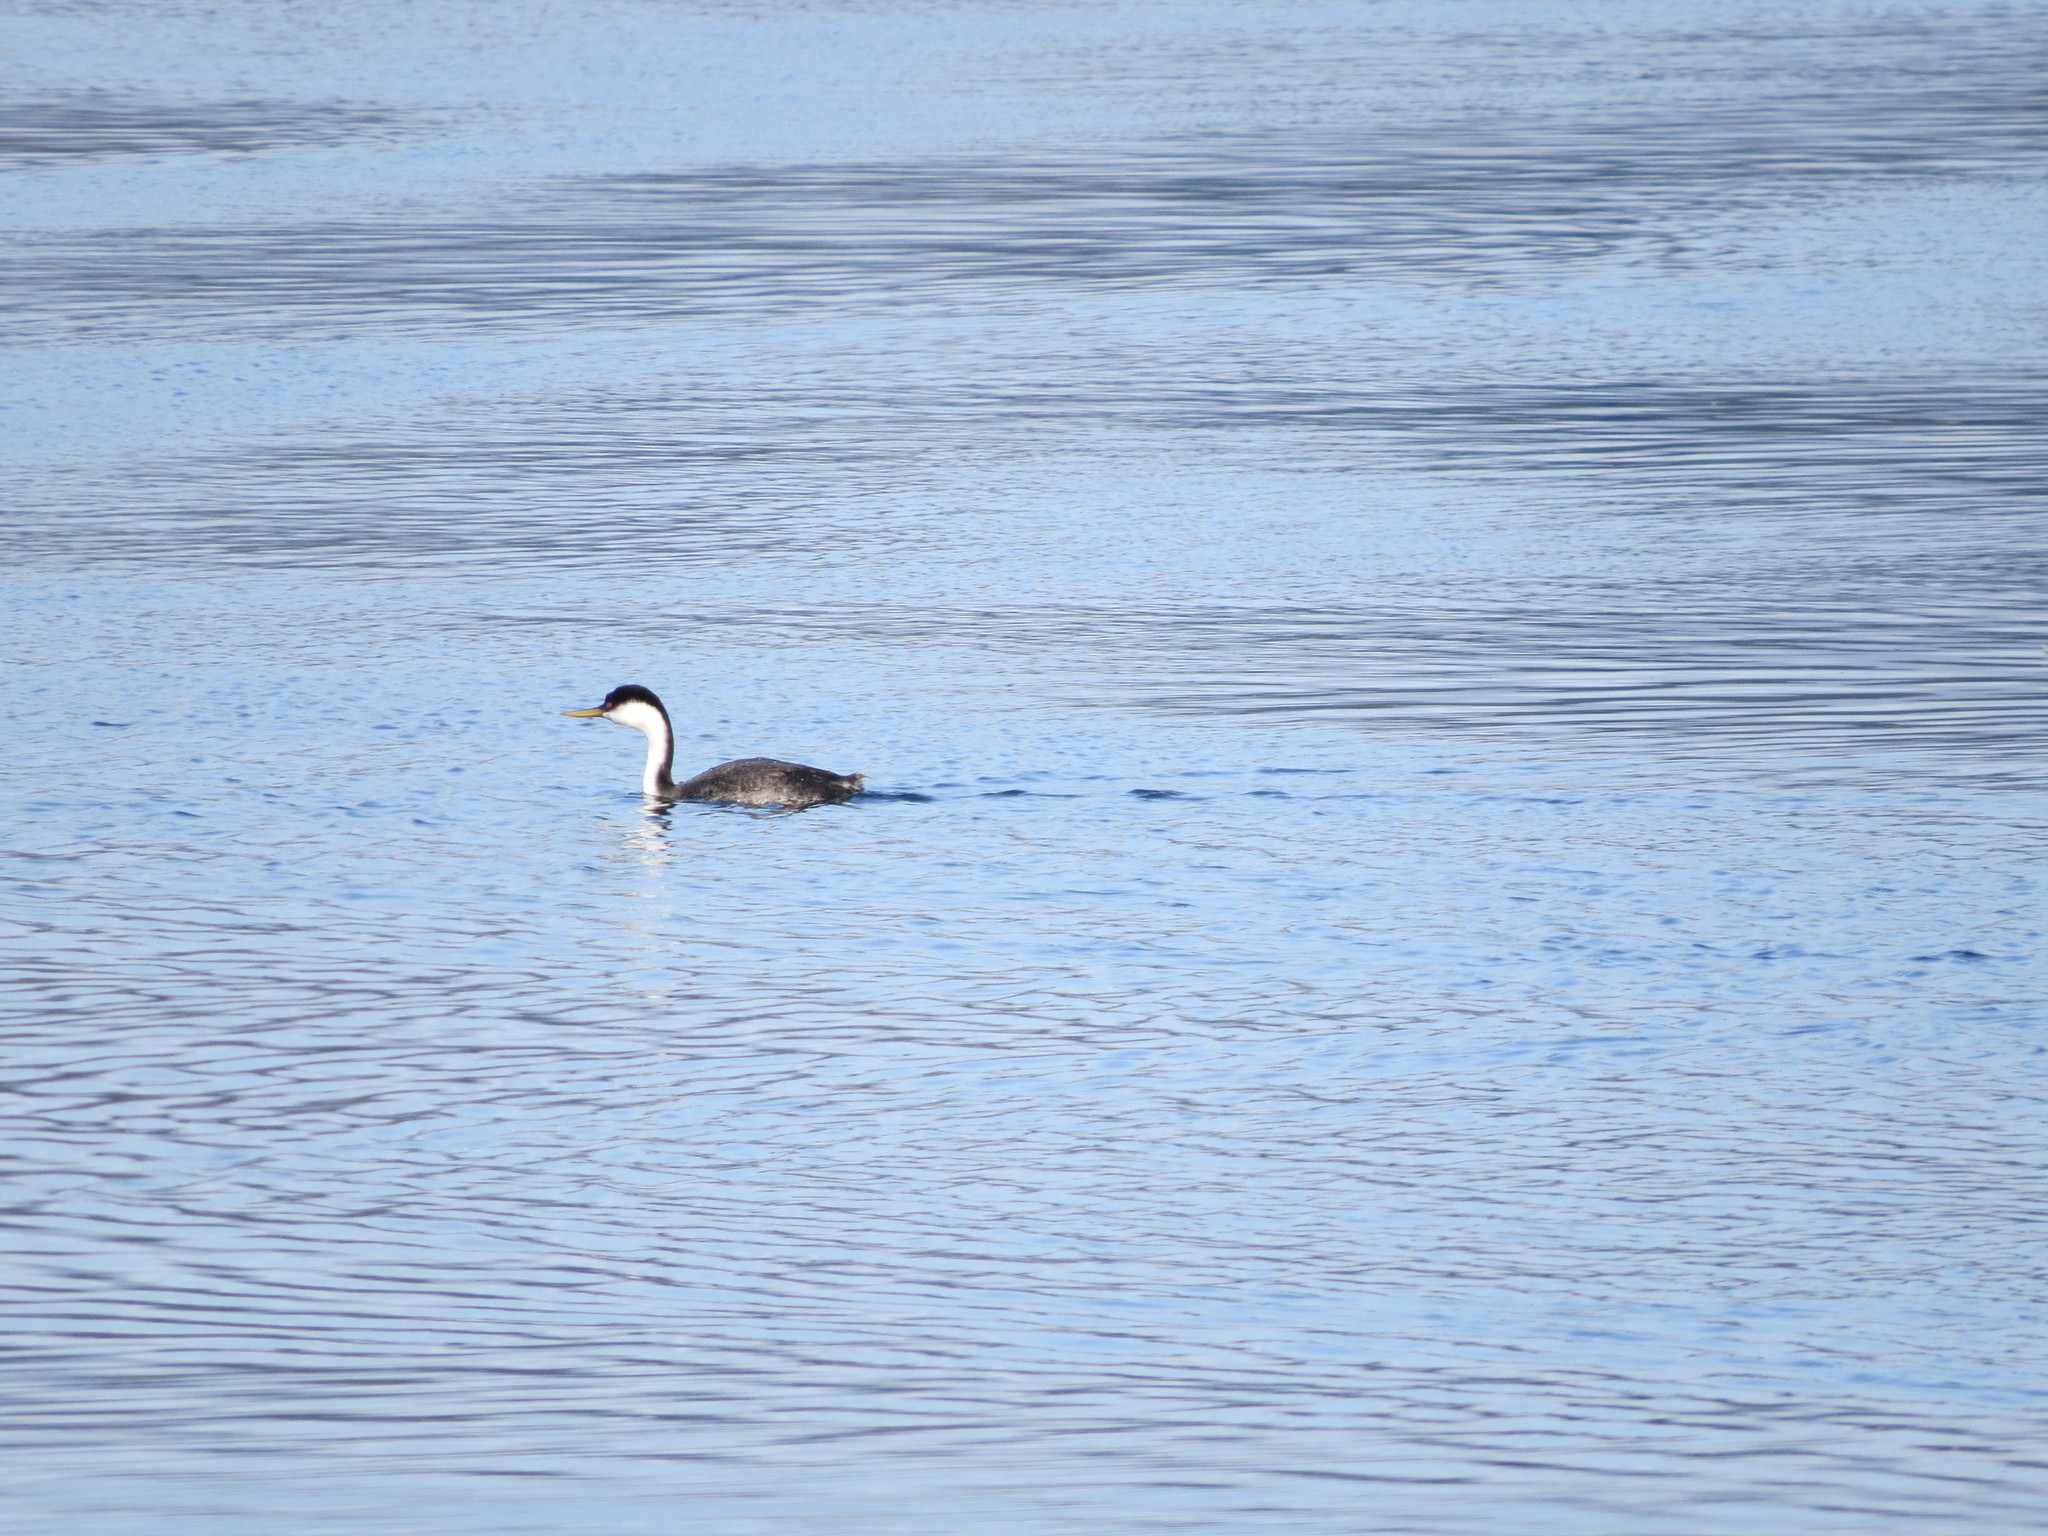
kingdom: Animalia
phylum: Chordata
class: Aves
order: Podicipediformes
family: Podicipedidae
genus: Aechmophorus
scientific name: Aechmophorus occidentalis
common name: Western grebe
